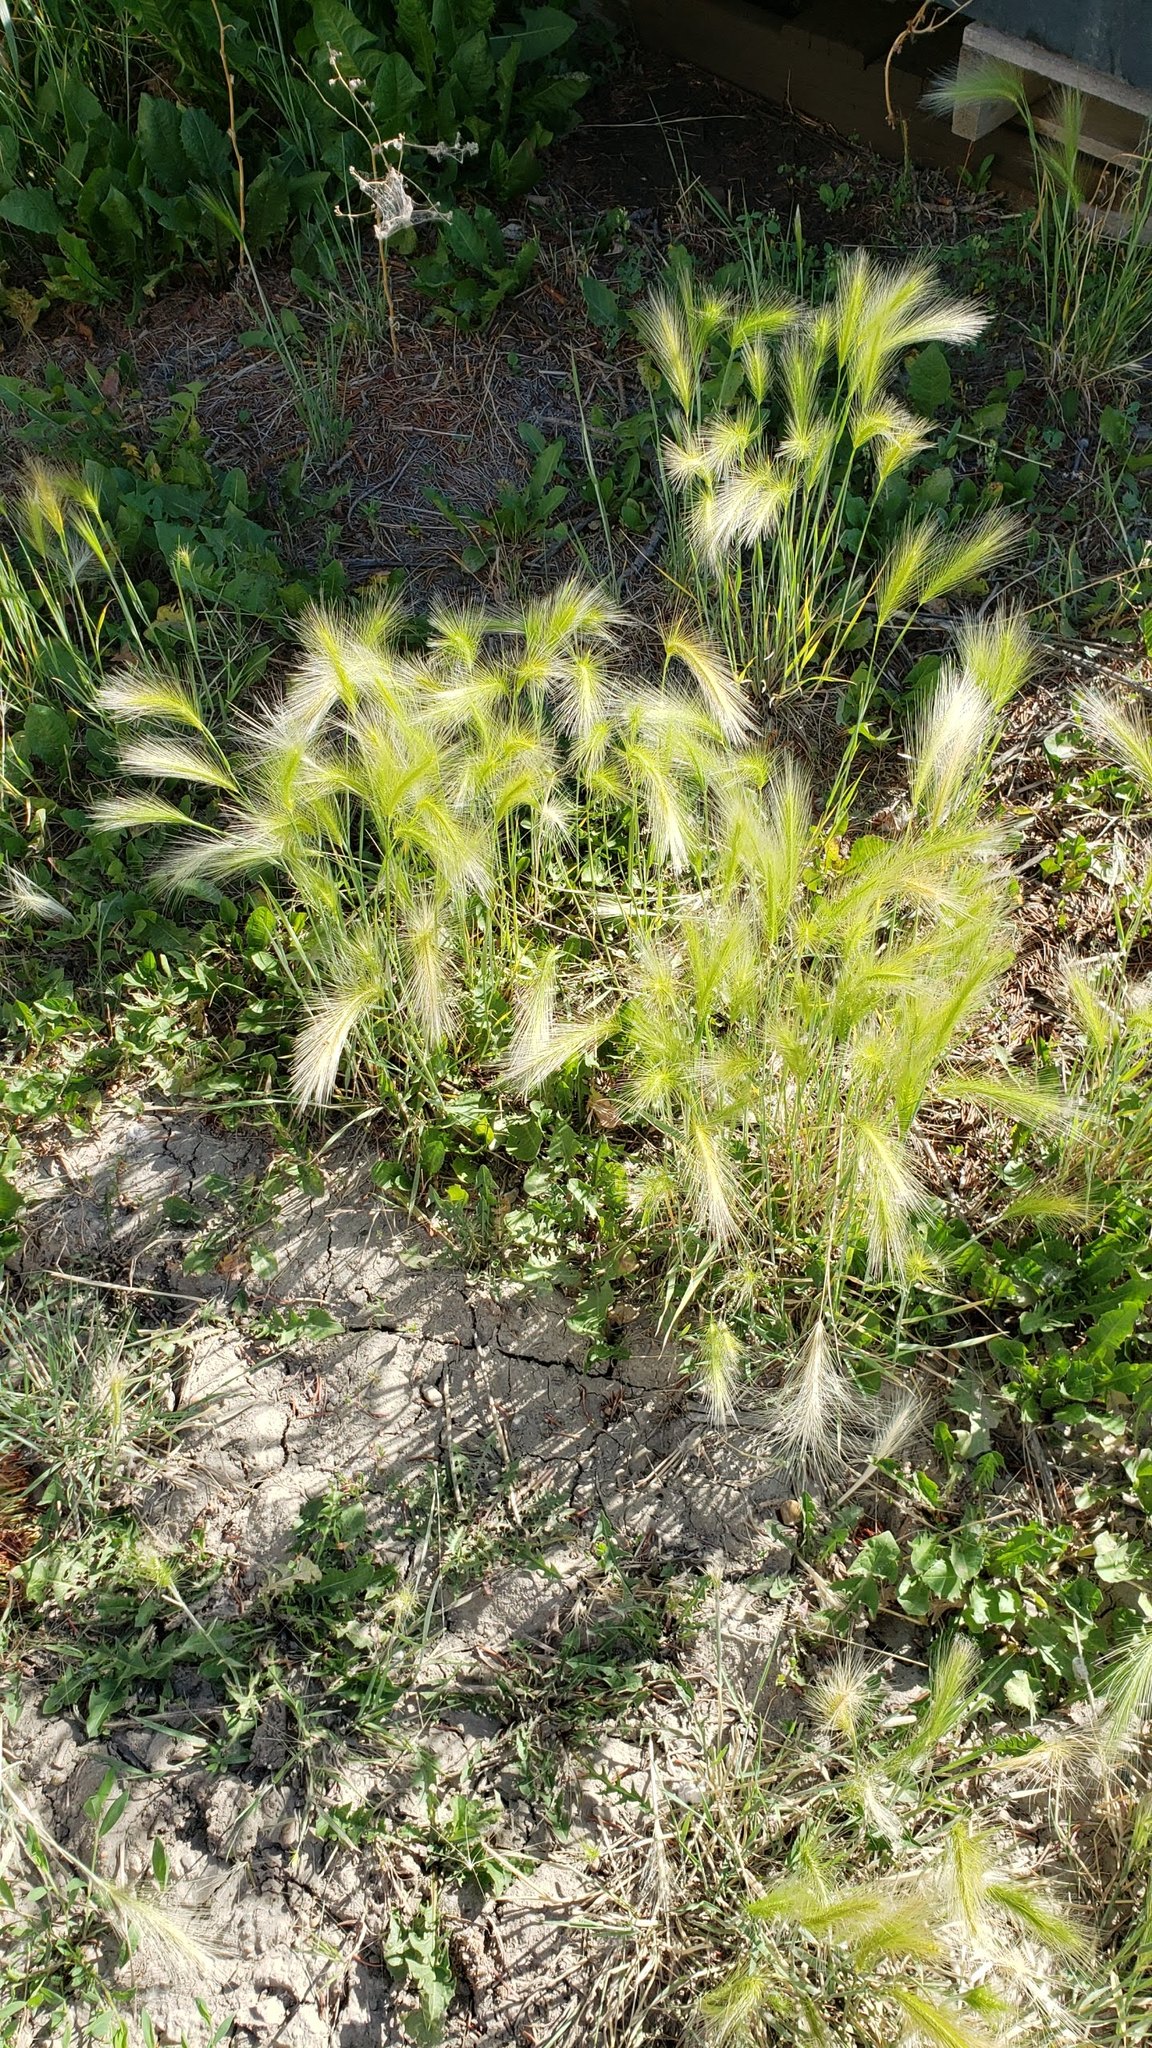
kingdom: Plantae
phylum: Tracheophyta
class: Liliopsida
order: Poales
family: Poaceae
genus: Hordeum
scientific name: Hordeum jubatum
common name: Foxtail barley
